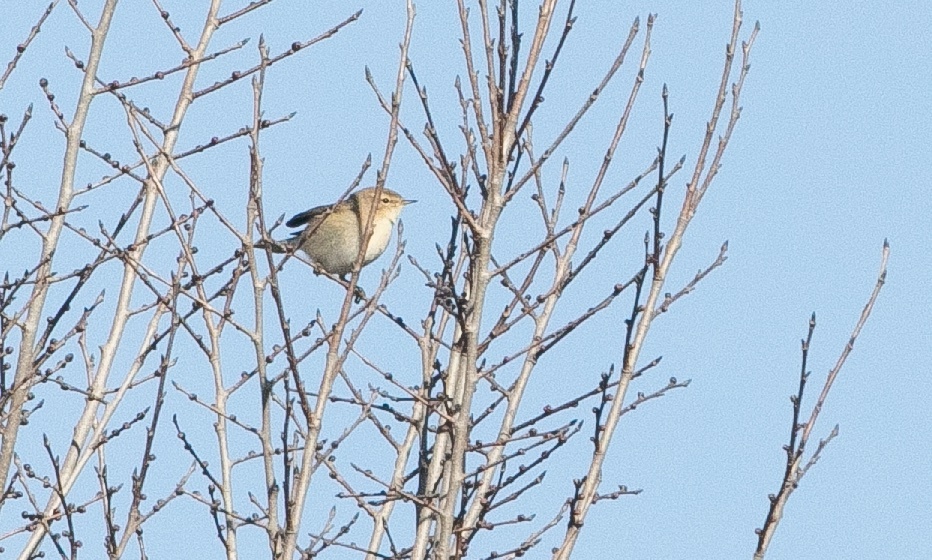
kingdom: Animalia
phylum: Chordata
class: Aves
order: Passeriformes
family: Phylloscopidae
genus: Phylloscopus
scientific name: Phylloscopus collybita
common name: Common chiffchaff
